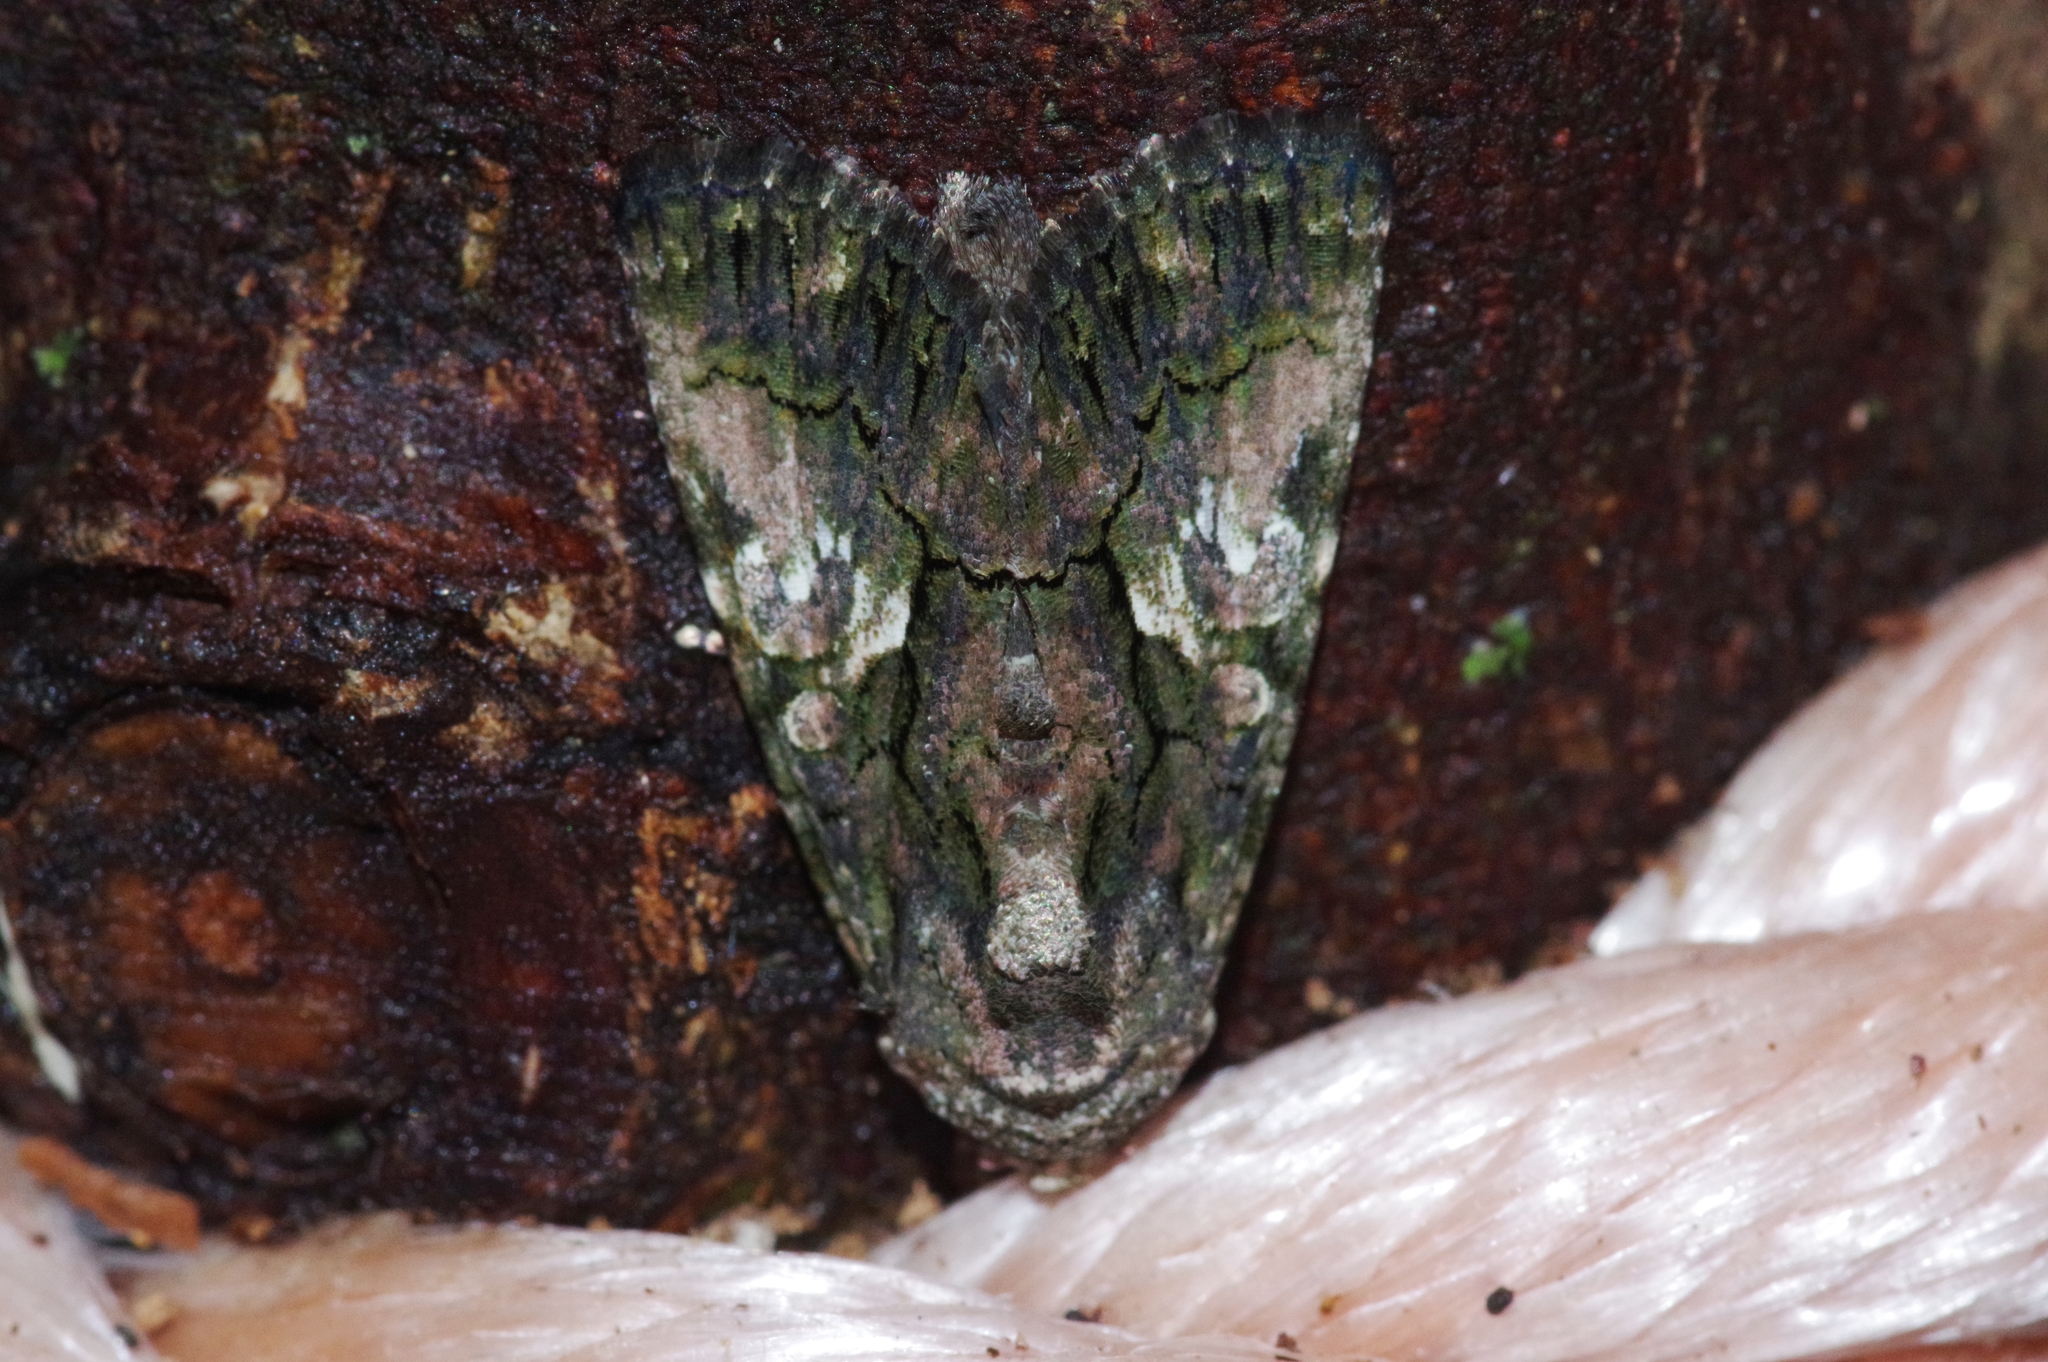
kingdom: Animalia
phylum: Arthropoda
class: Insecta
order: Lepidoptera
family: Noctuidae
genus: Aedia
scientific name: Aedia leucomelas
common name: Sorcerer
